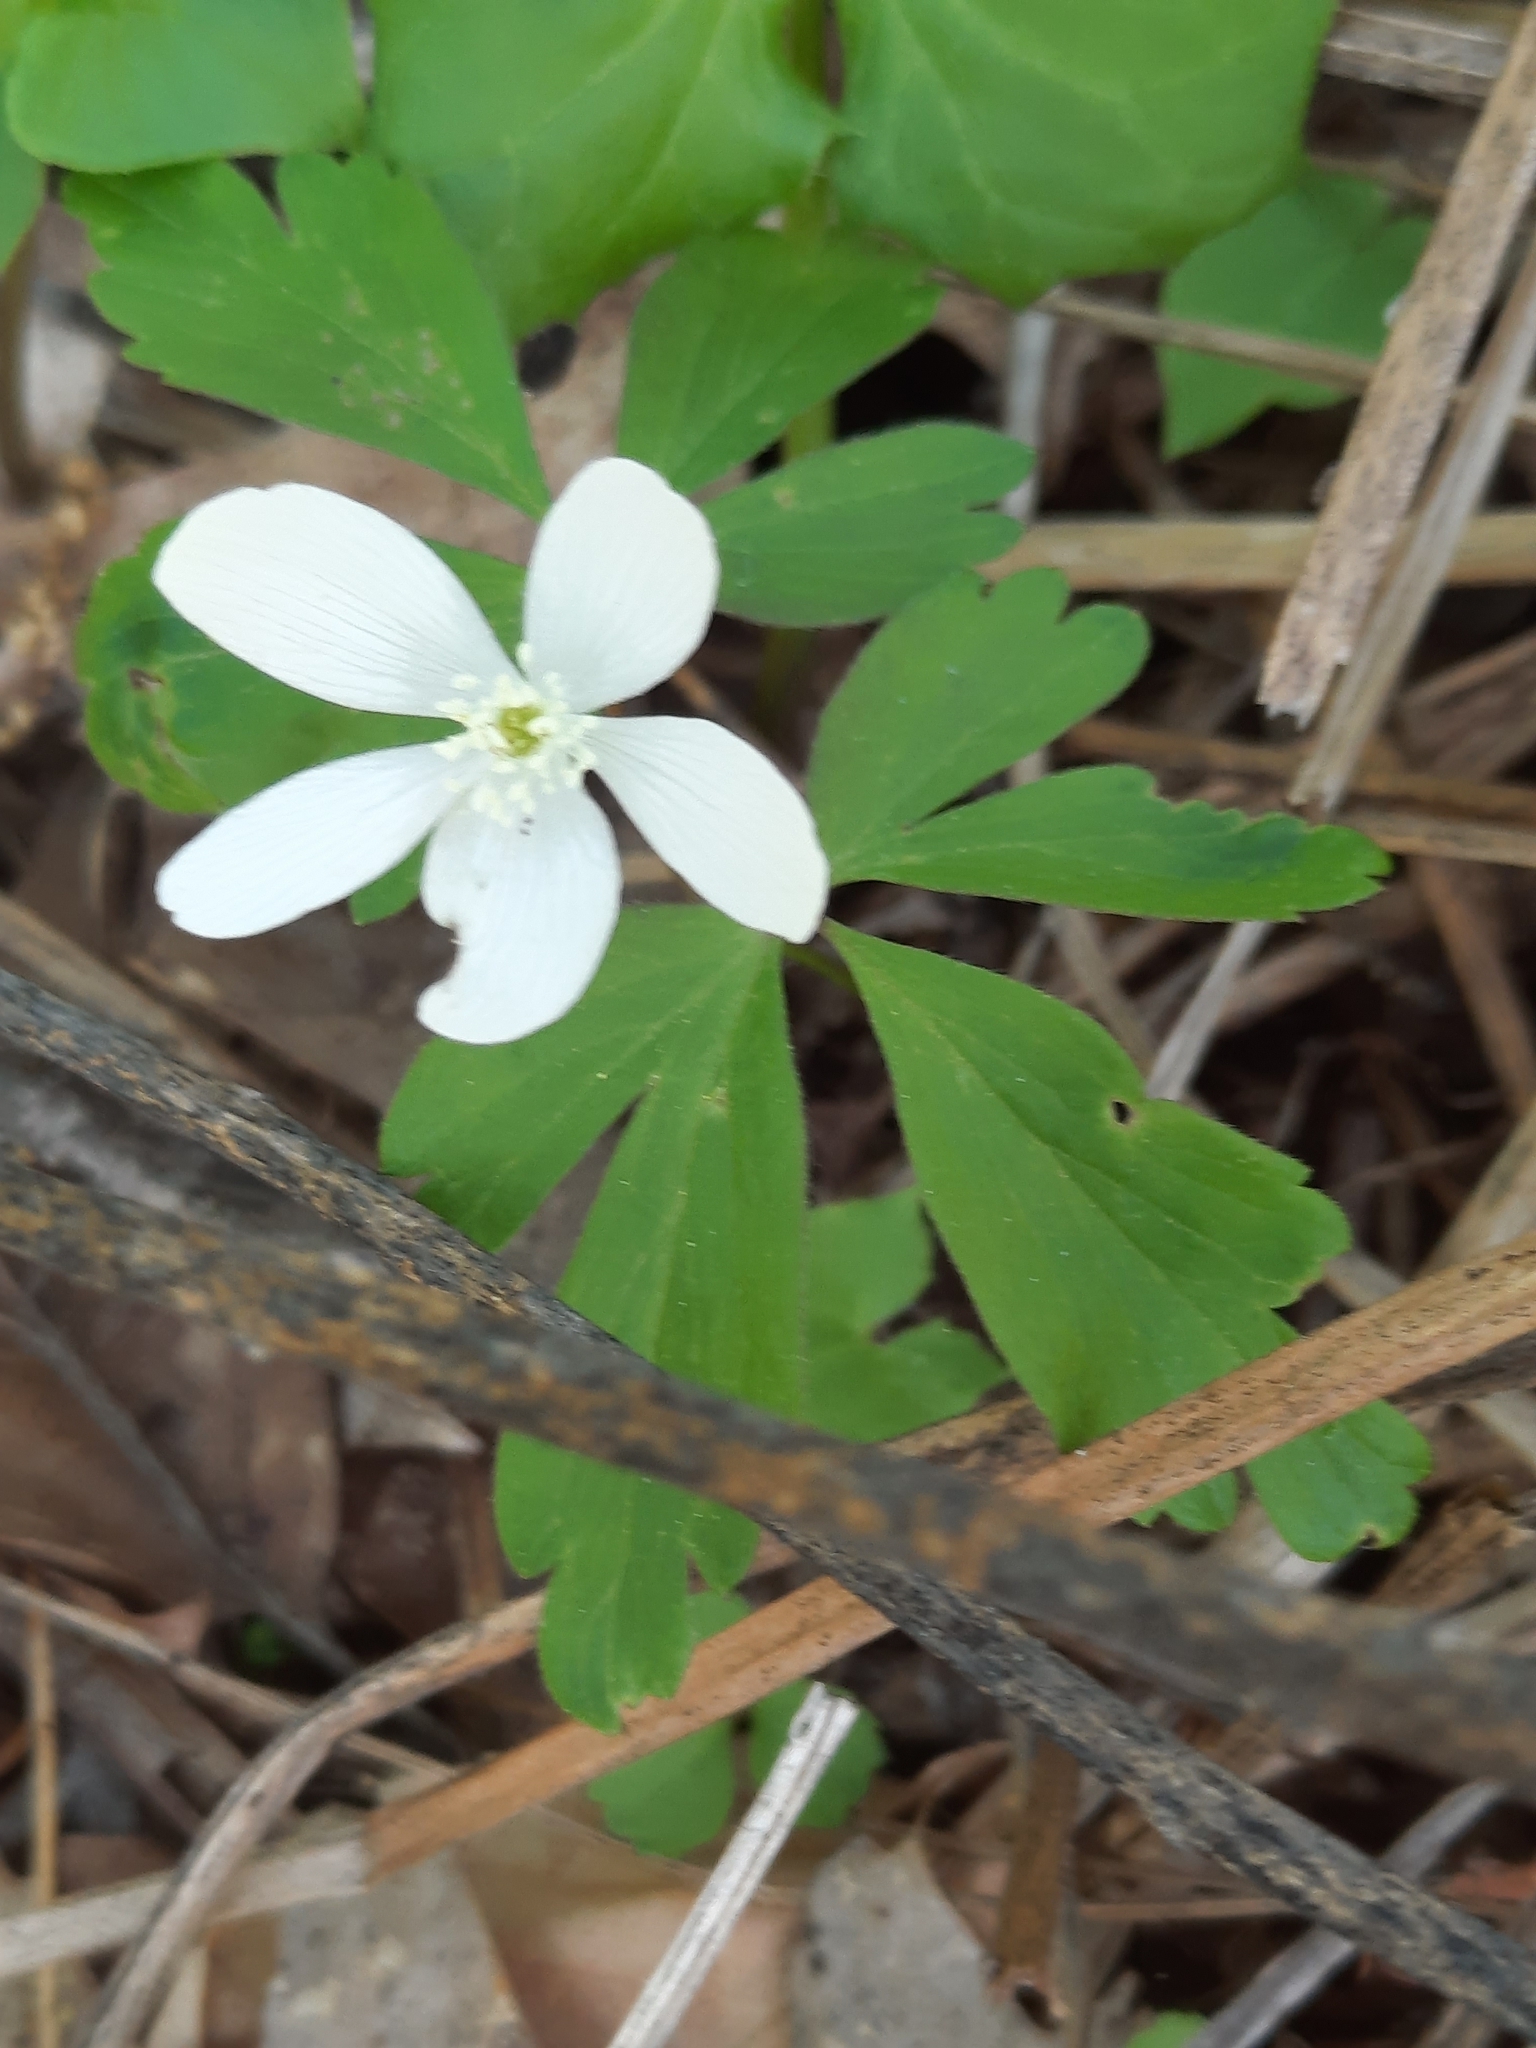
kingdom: Plantae
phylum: Tracheophyta
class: Magnoliopsida
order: Ranunculales
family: Ranunculaceae
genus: Anemone
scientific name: Anemone quinquefolia
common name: Wood anemone
